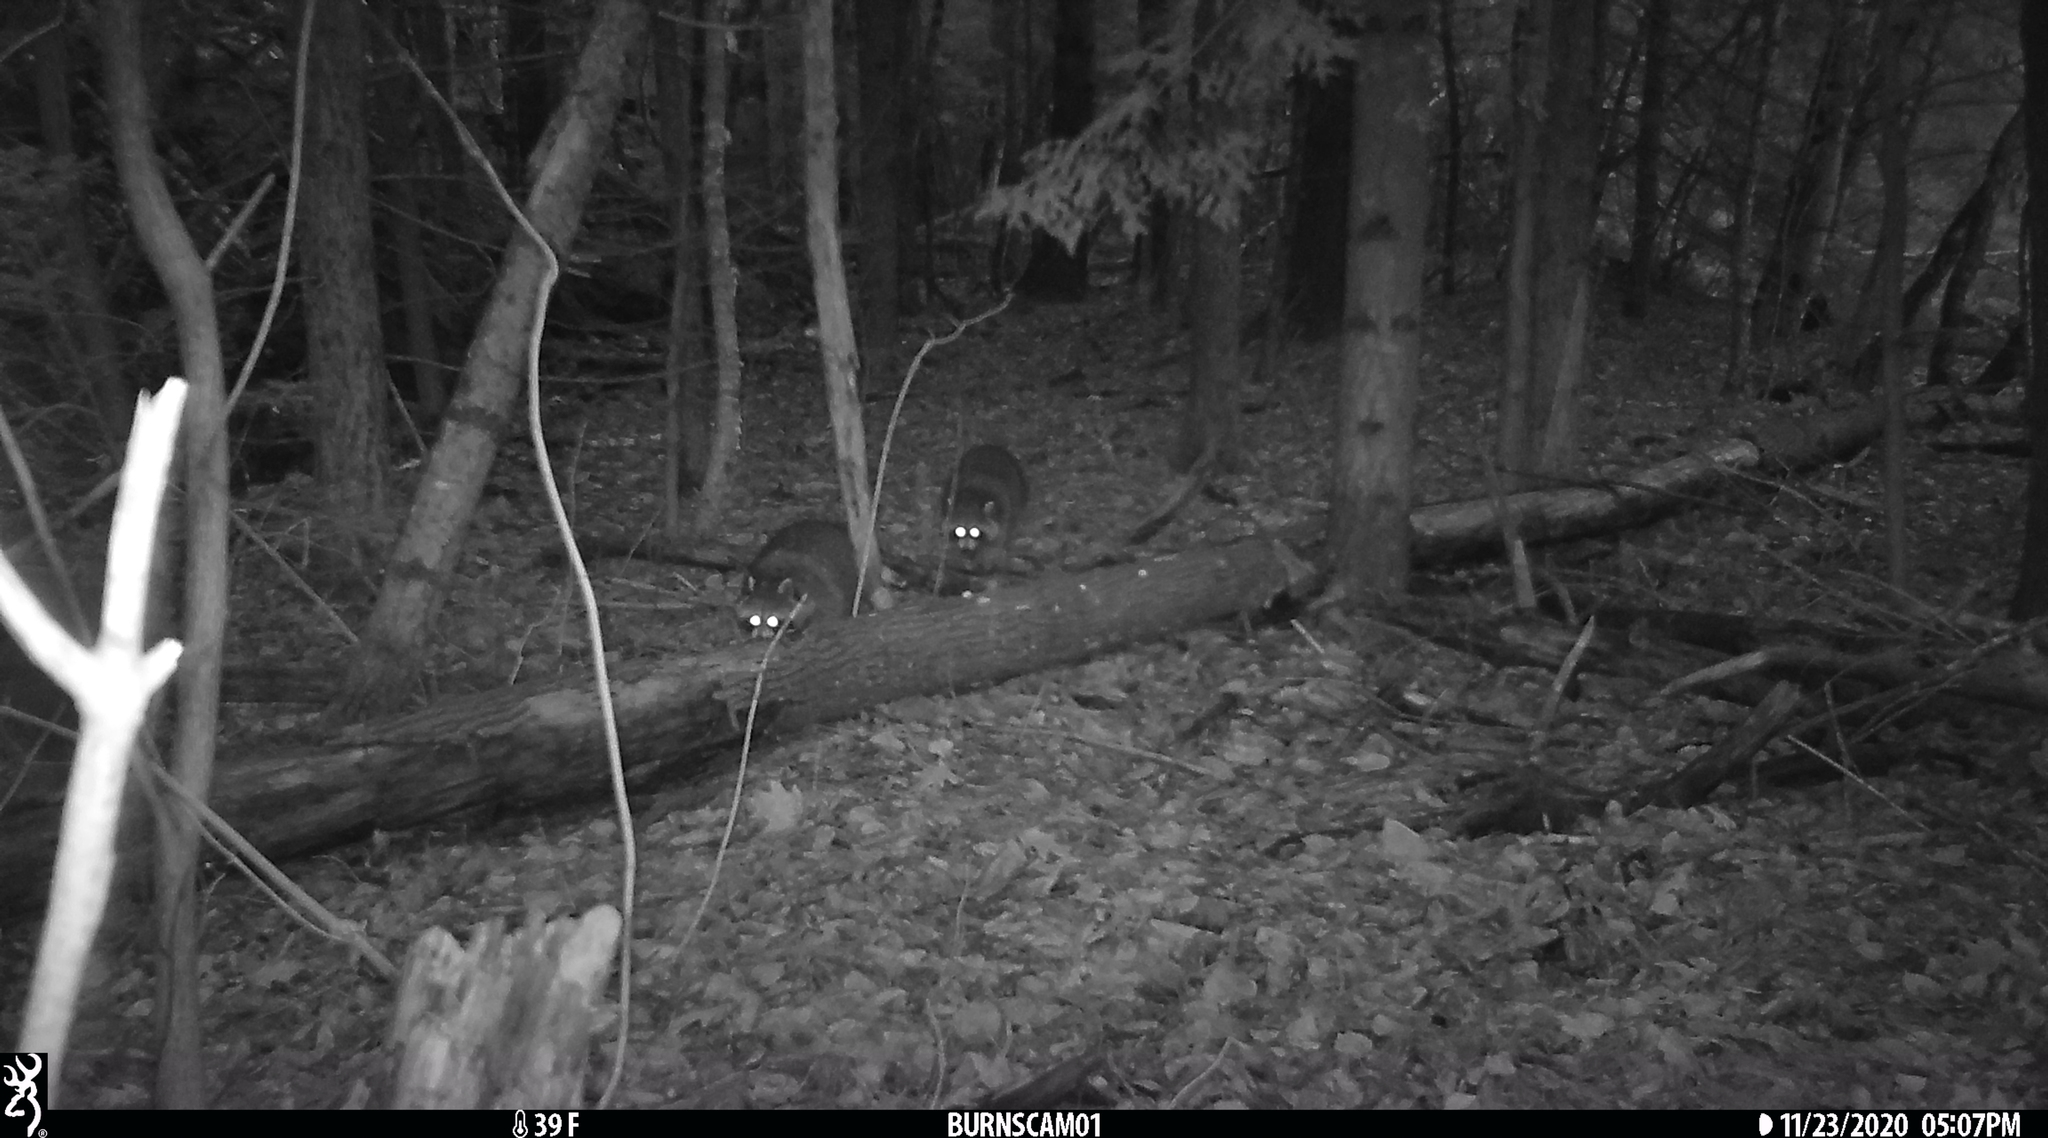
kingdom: Animalia
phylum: Chordata
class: Mammalia
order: Carnivora
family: Procyonidae
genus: Procyon
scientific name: Procyon lotor
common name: Raccoon
